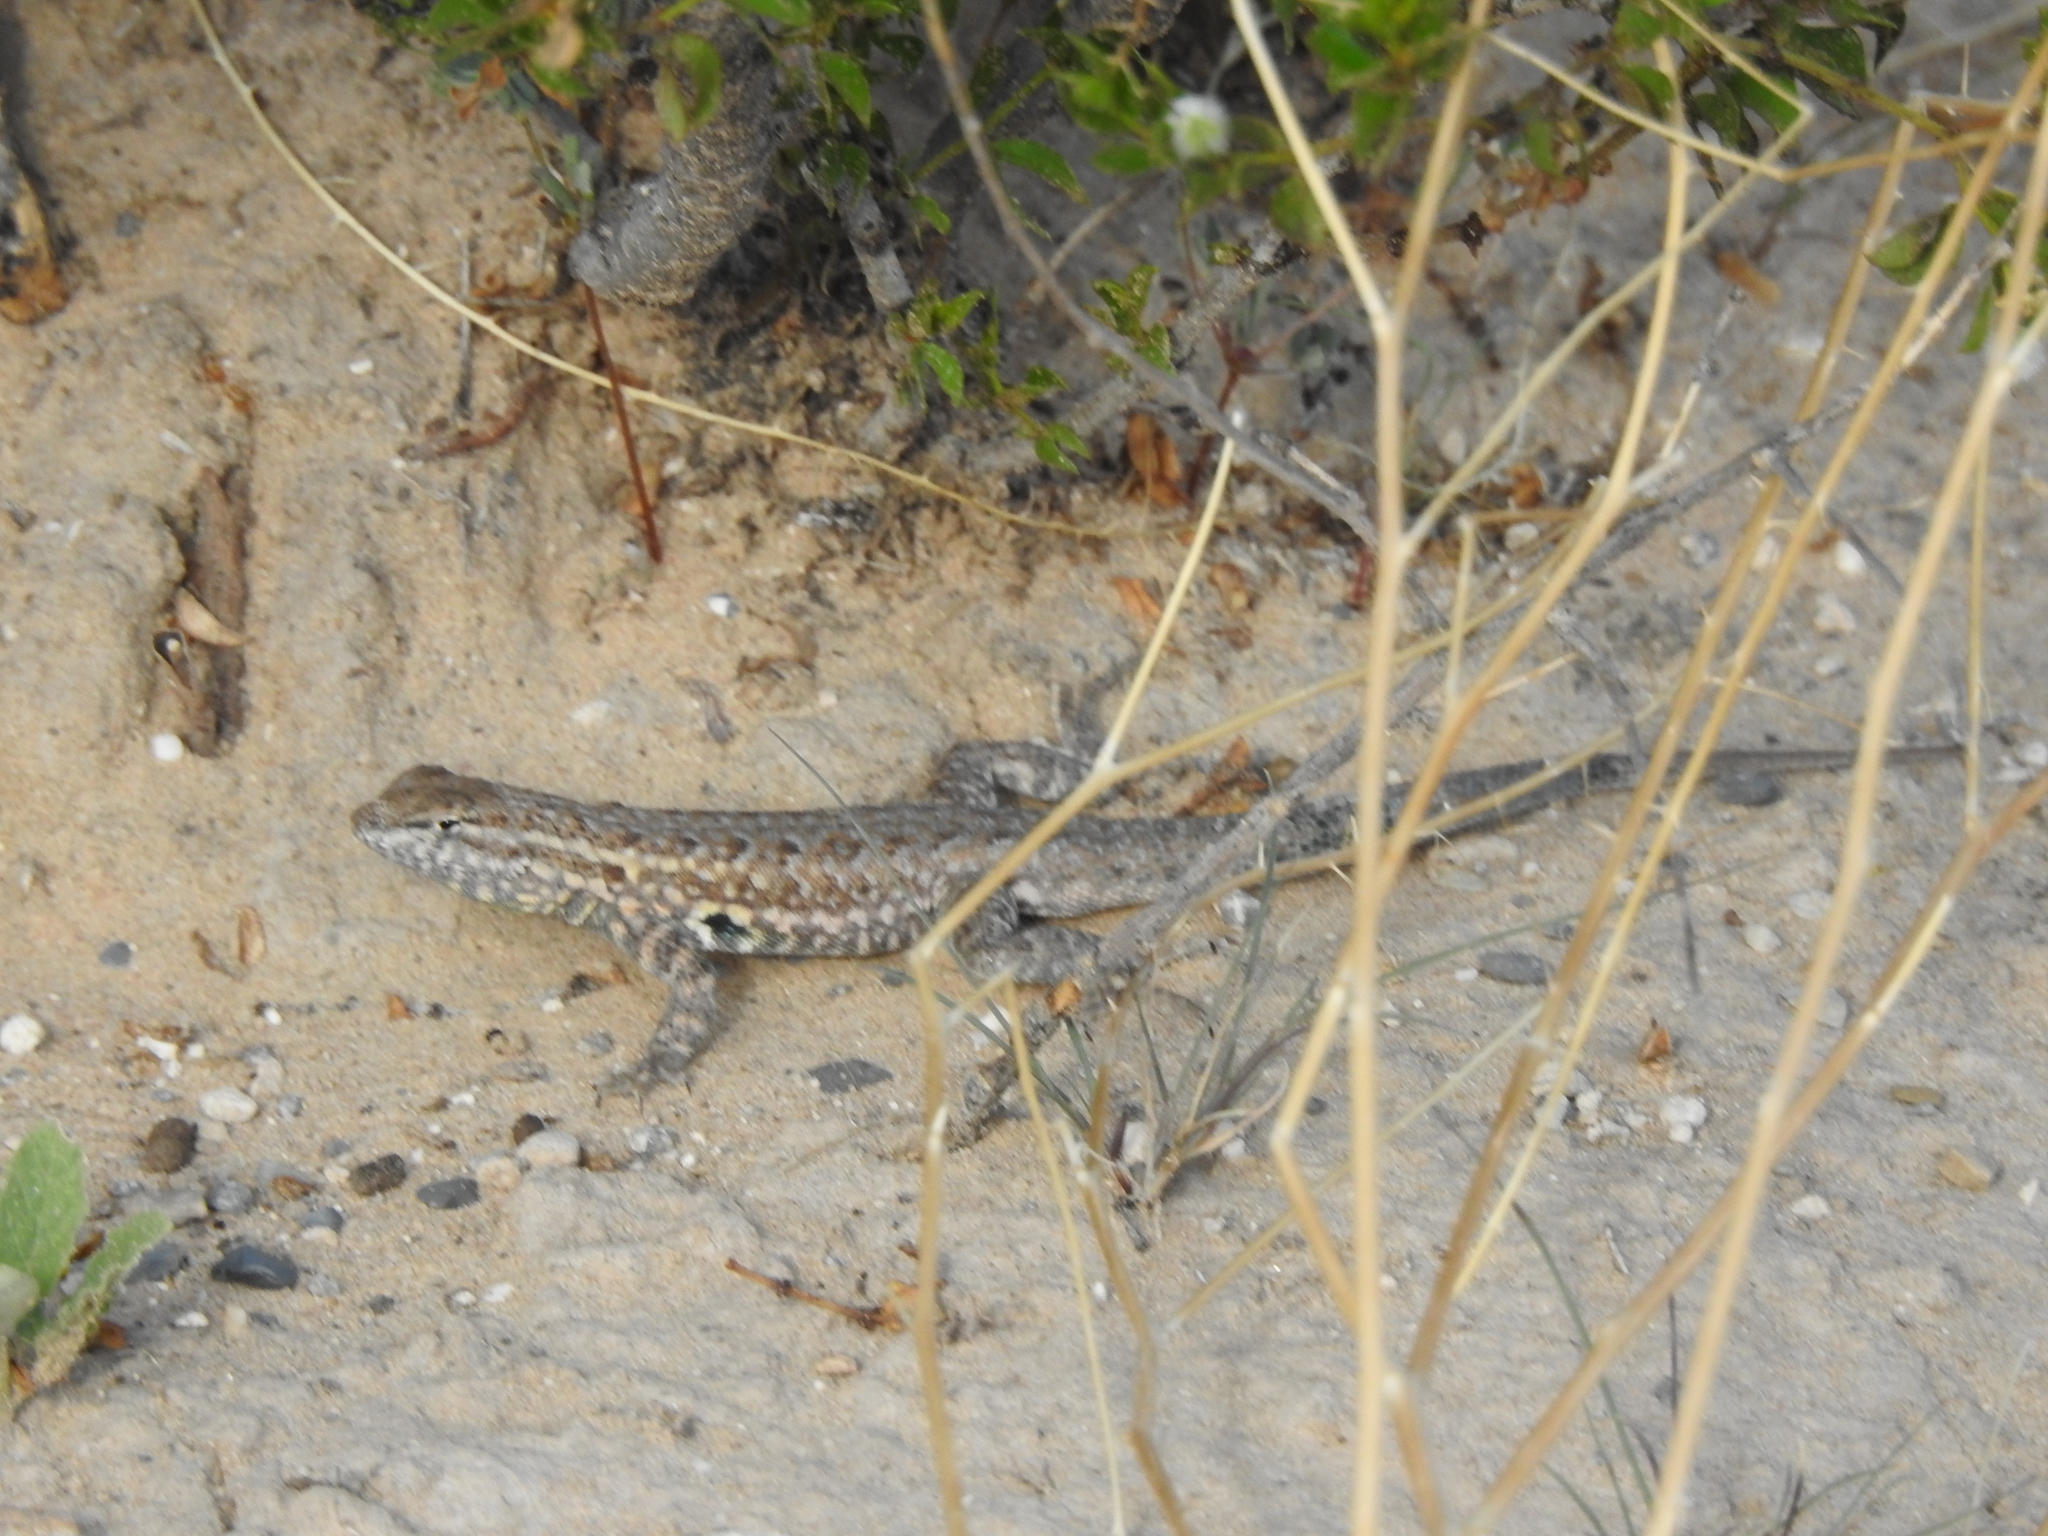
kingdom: Animalia
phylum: Chordata
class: Squamata
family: Phrynosomatidae
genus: Uta
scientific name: Uta stansburiana
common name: Side-blotched lizard
